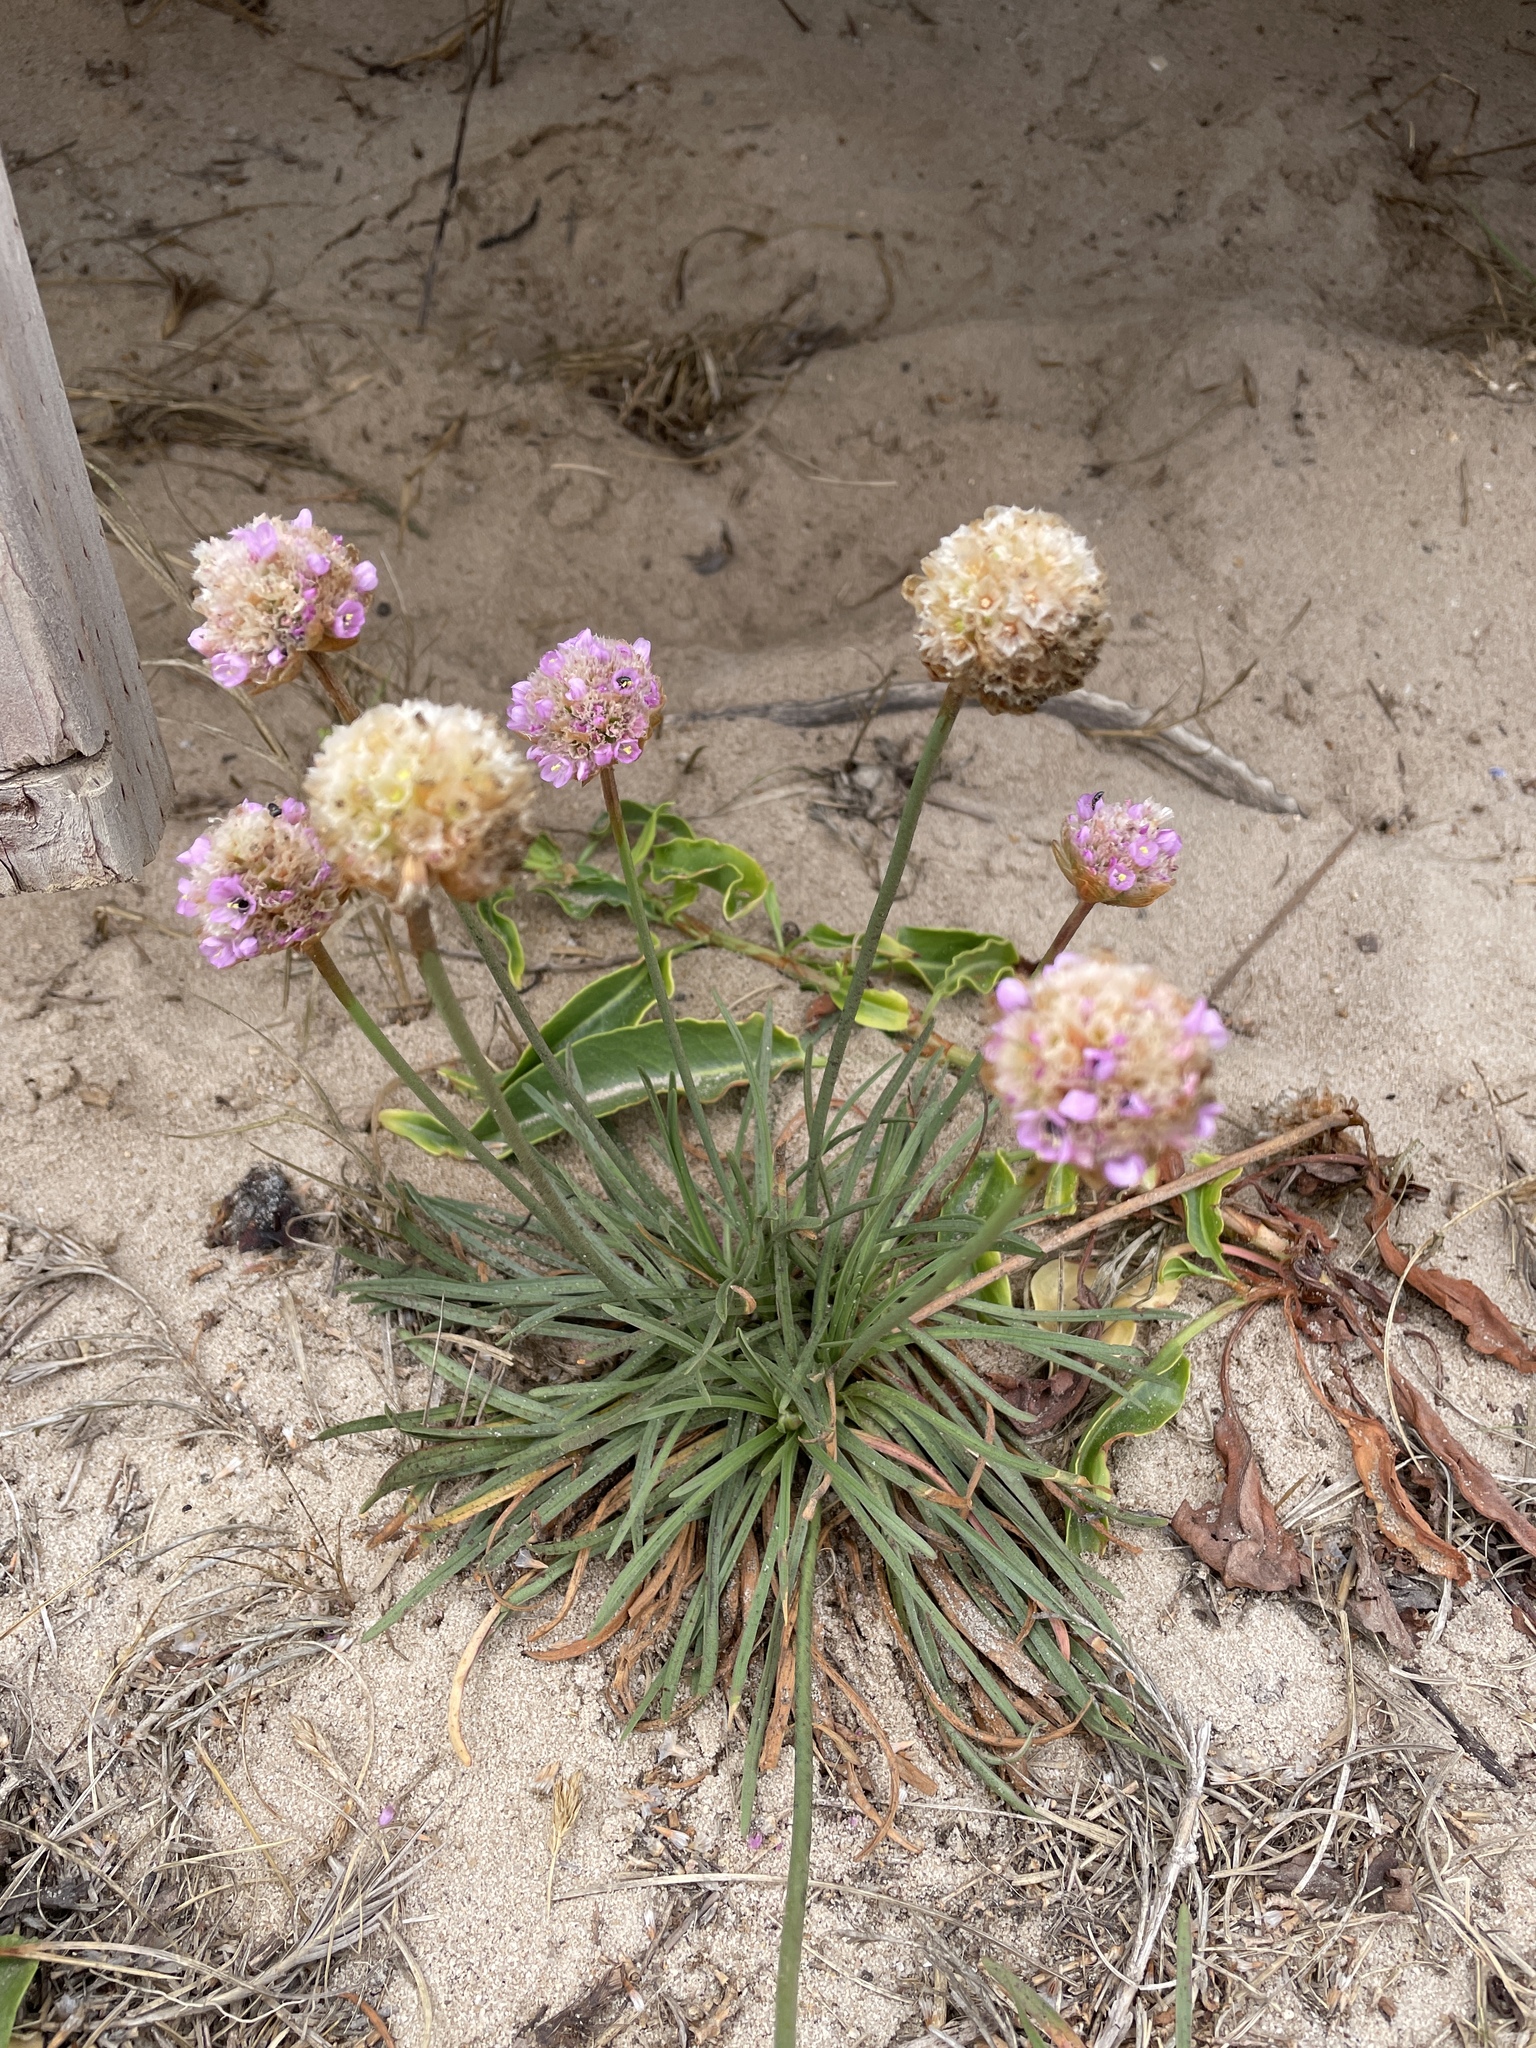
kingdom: Plantae
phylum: Tracheophyta
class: Magnoliopsida
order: Caryophyllales
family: Plumbaginaceae
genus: Armeria
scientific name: Armeria maritima
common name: Thrift
